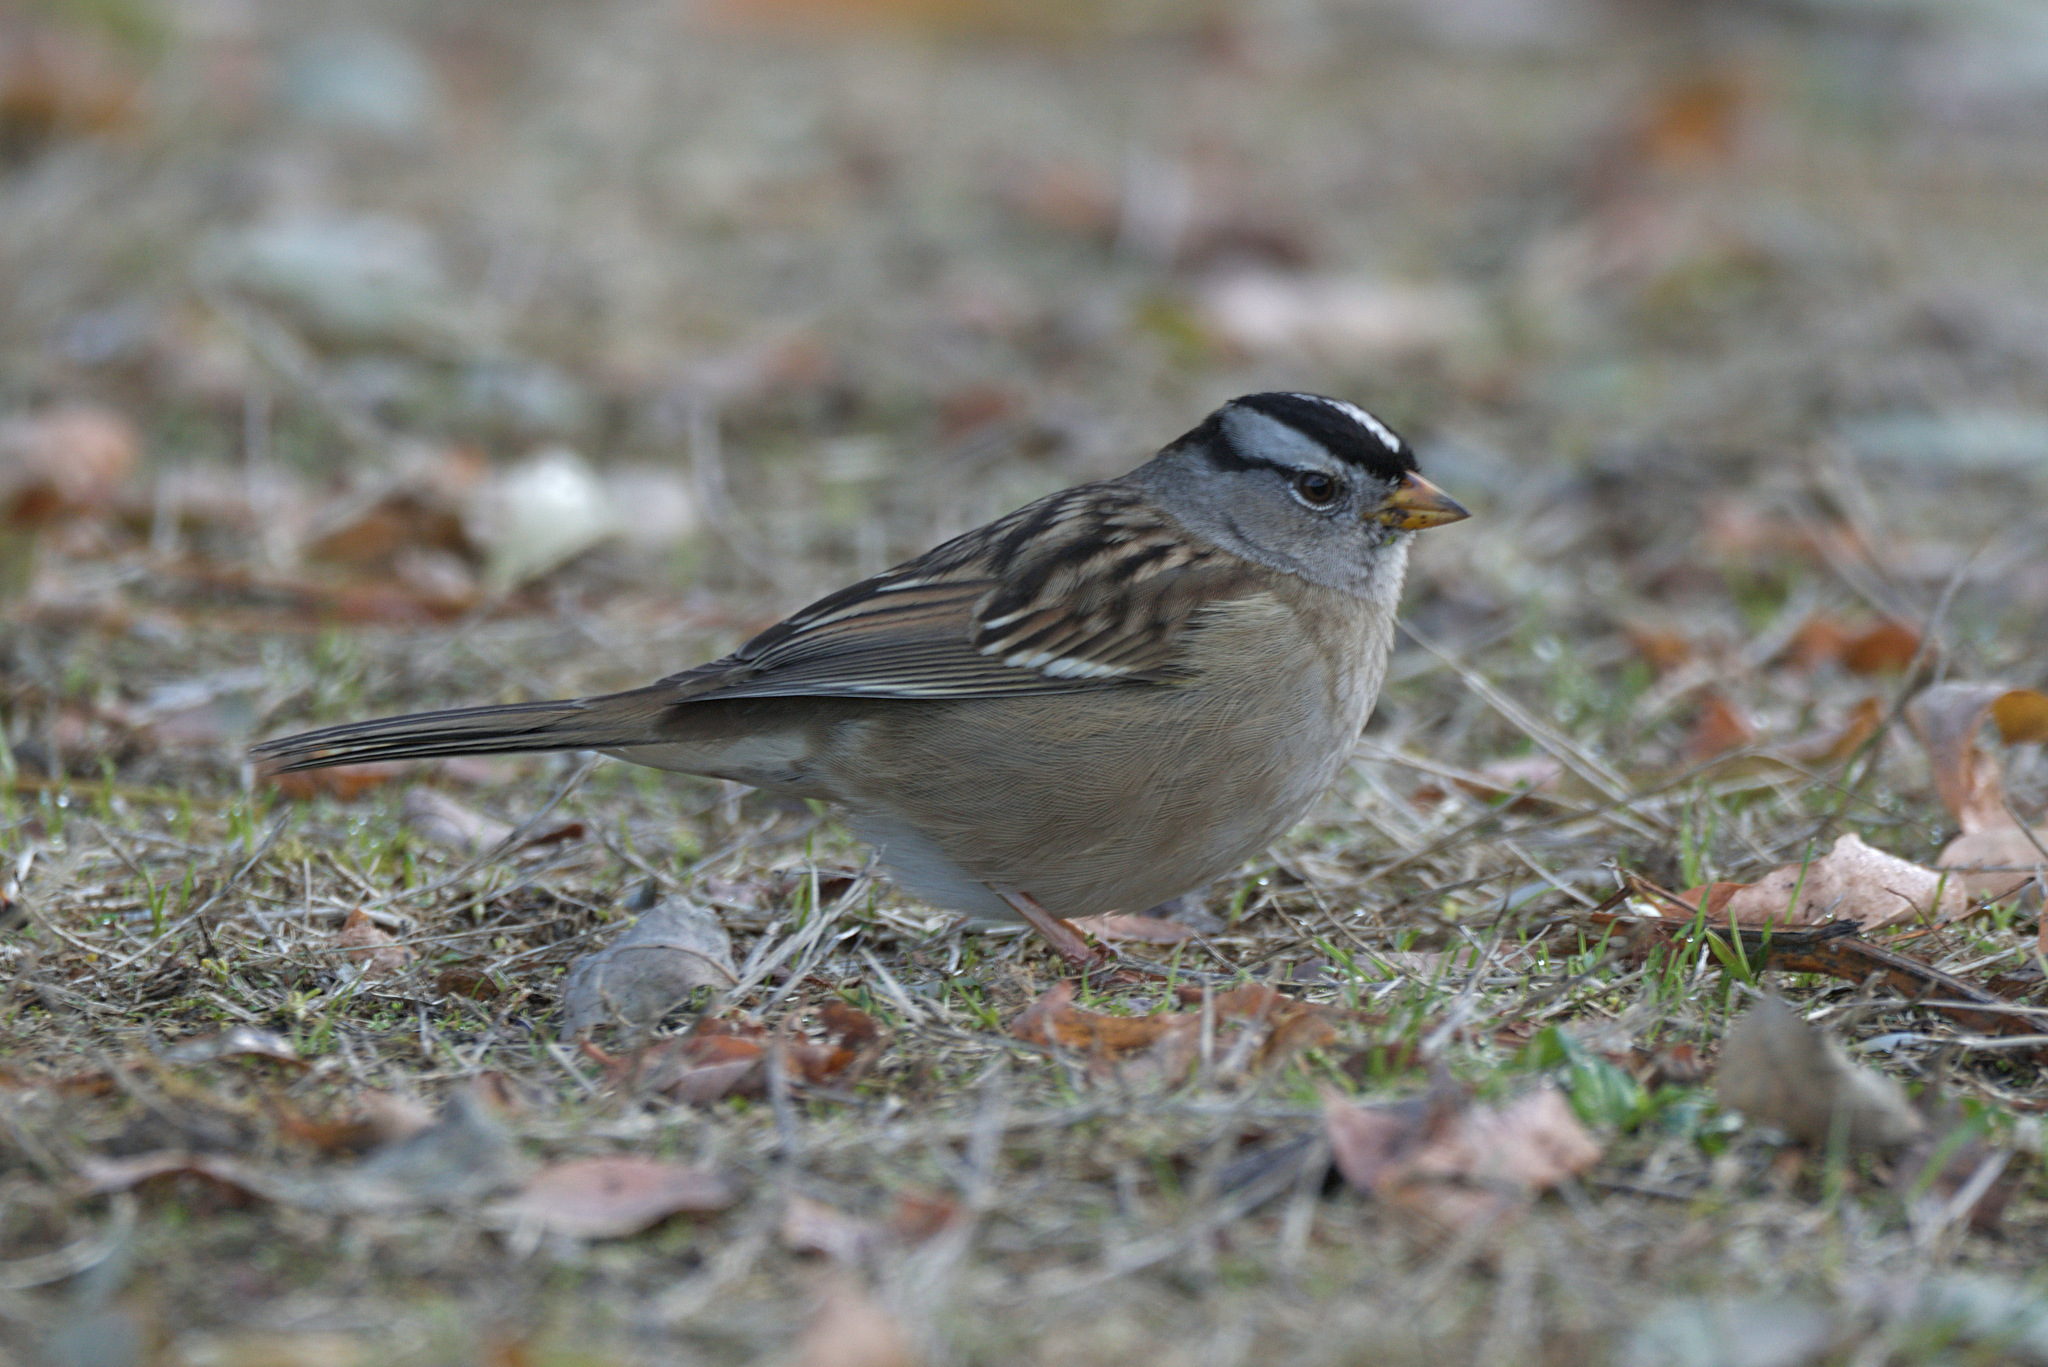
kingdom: Animalia
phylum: Chordata
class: Aves
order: Passeriformes
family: Passerellidae
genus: Zonotrichia
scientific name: Zonotrichia leucophrys
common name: White-crowned sparrow
